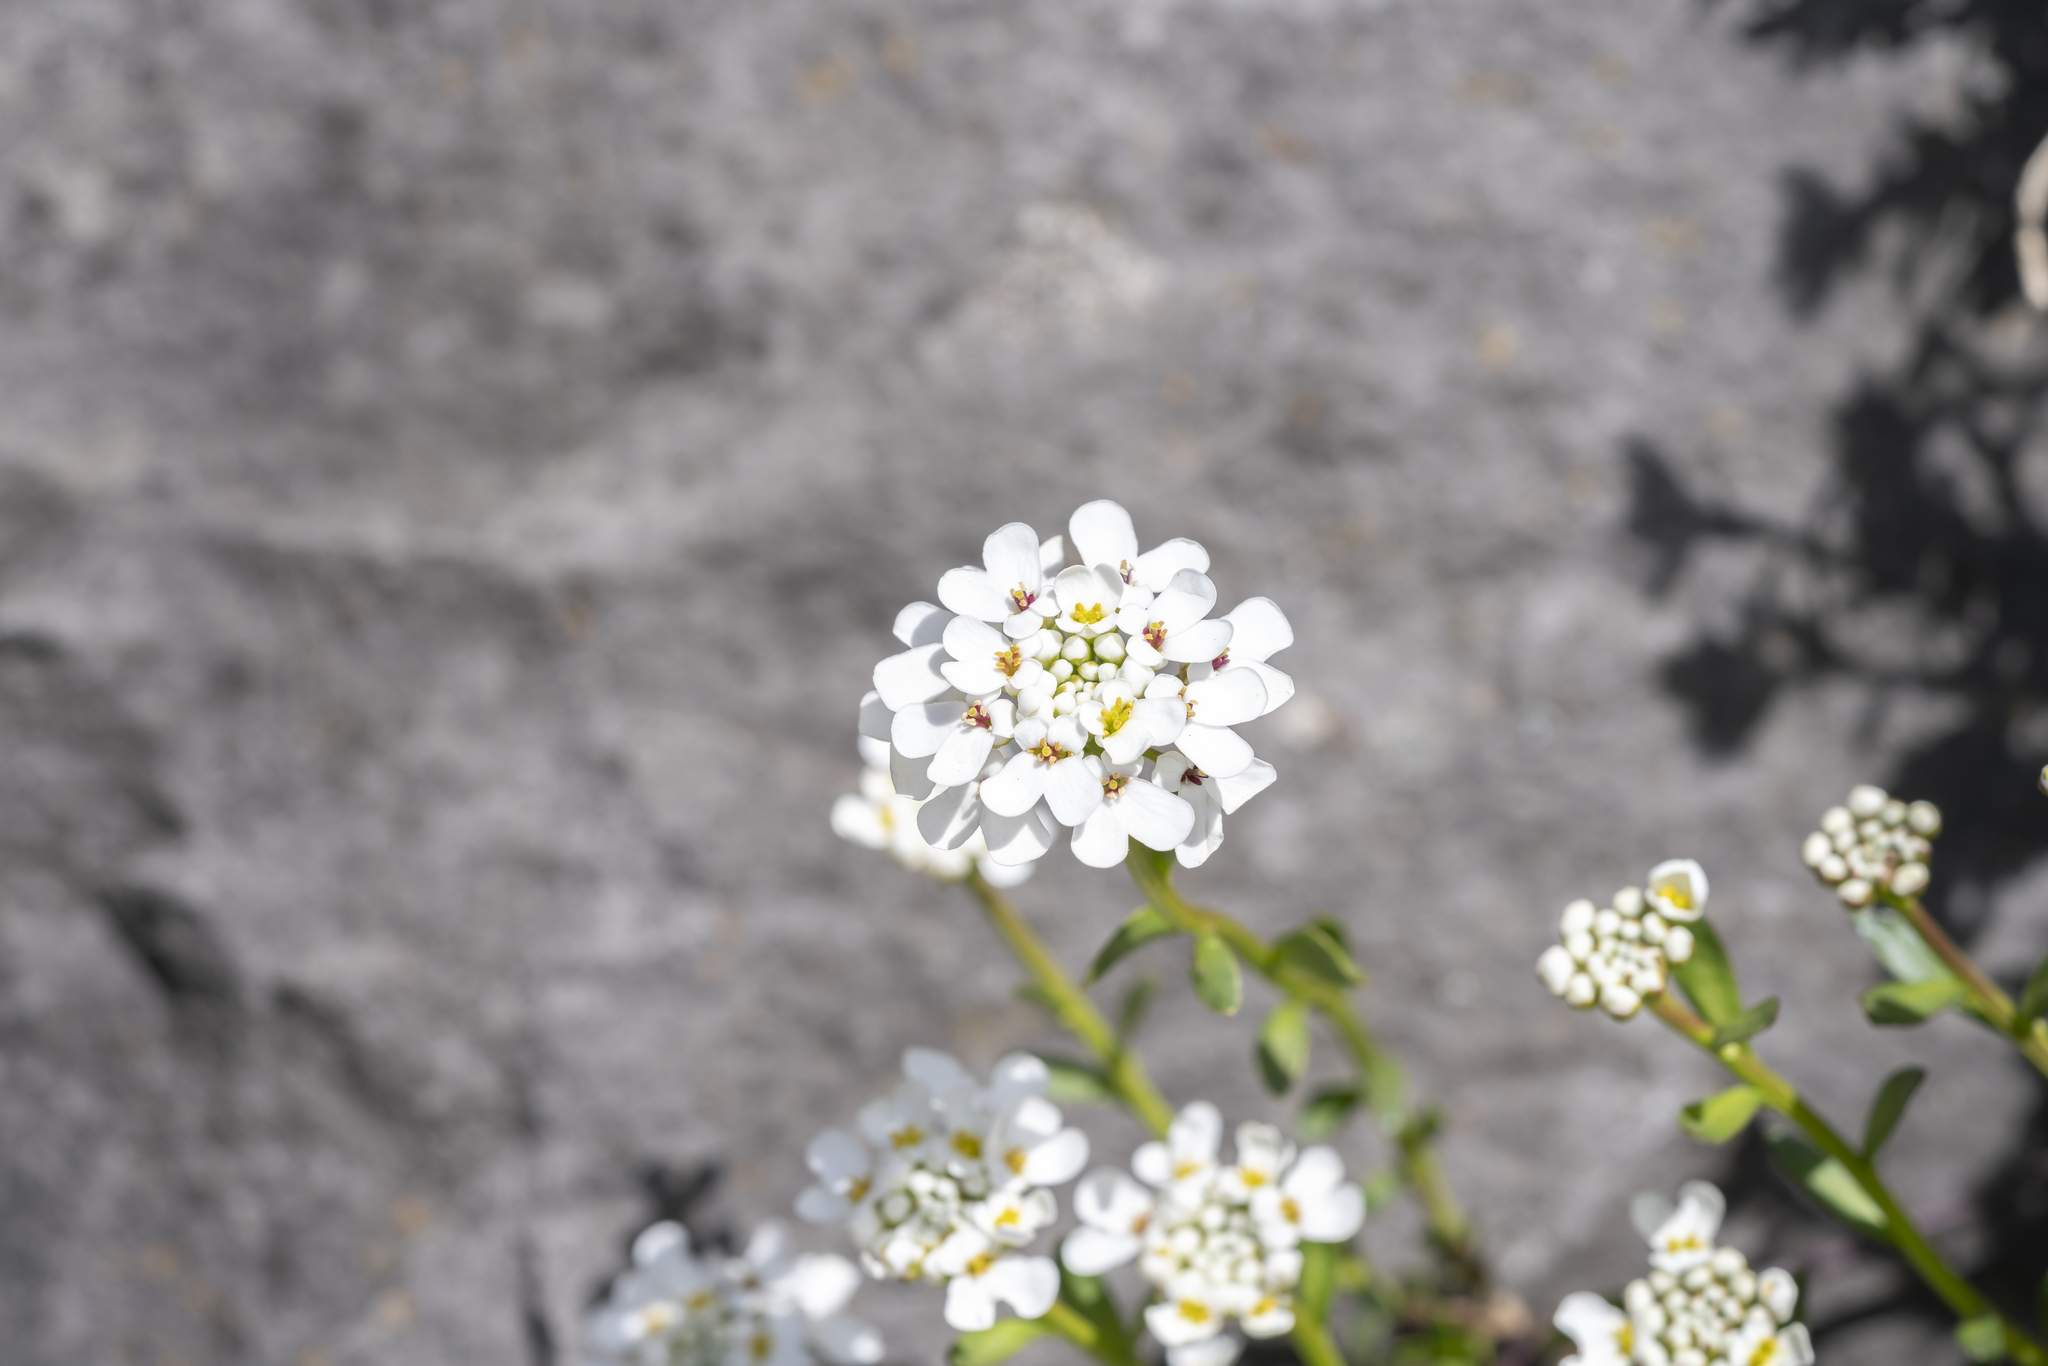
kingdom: Plantae
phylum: Tracheophyta
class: Magnoliopsida
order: Brassicales
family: Brassicaceae
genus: Iberis
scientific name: Iberis sempervirens
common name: Evergreen candytuft
